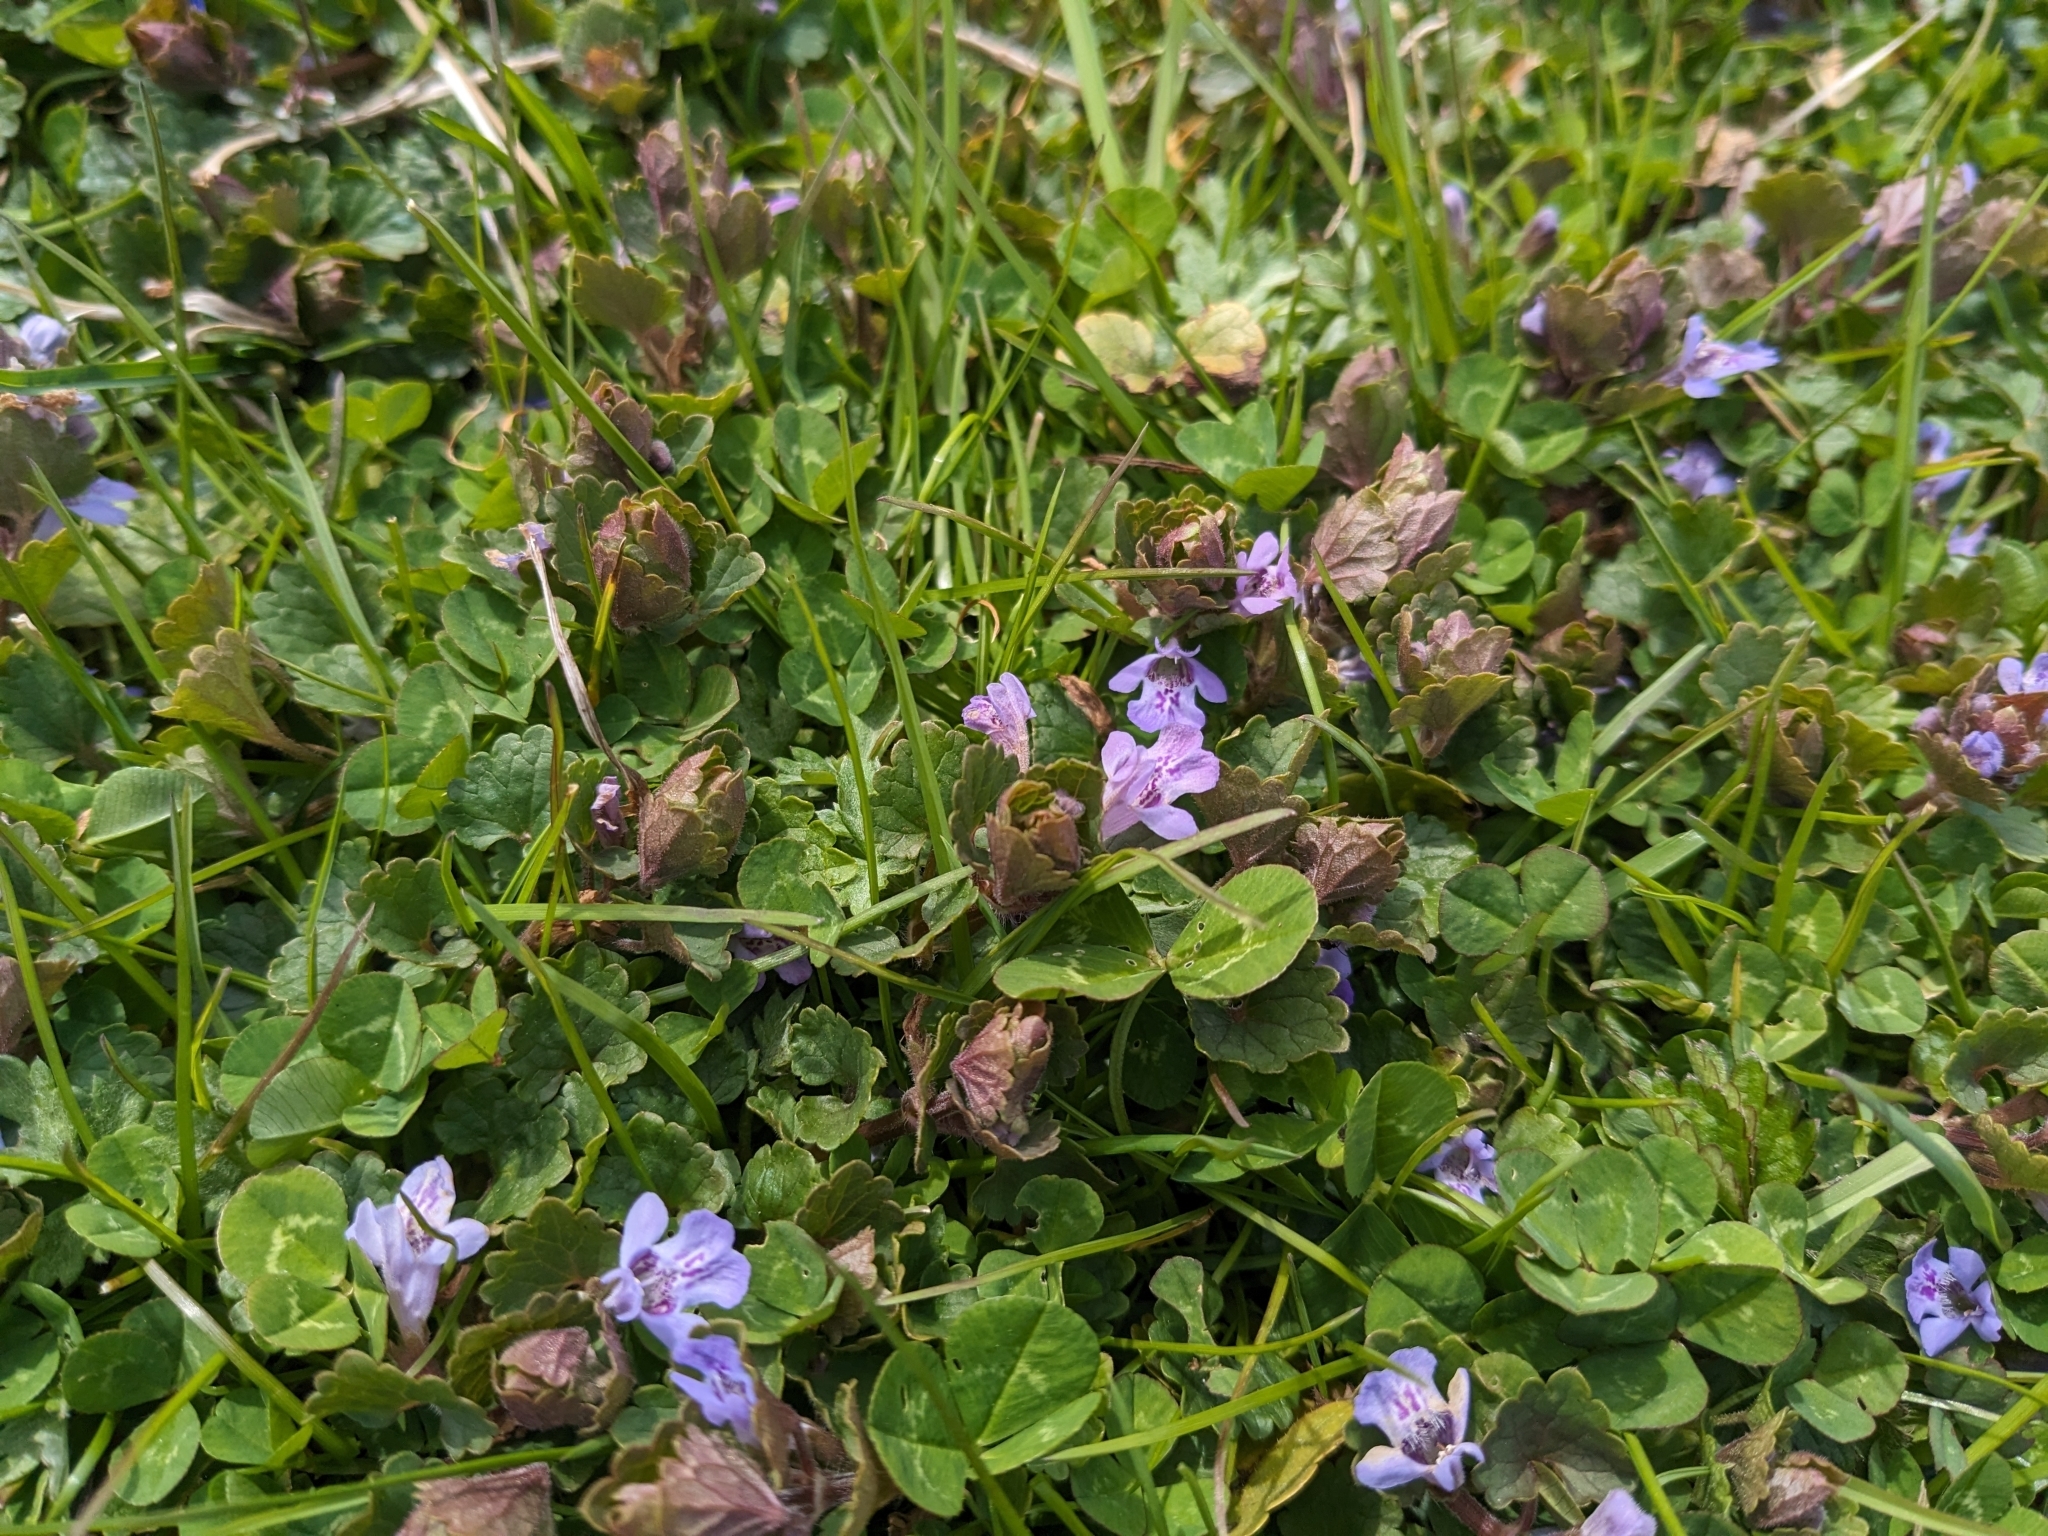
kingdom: Plantae
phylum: Tracheophyta
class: Magnoliopsida
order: Lamiales
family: Lamiaceae
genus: Glechoma
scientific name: Glechoma hederacea
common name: Ground ivy
